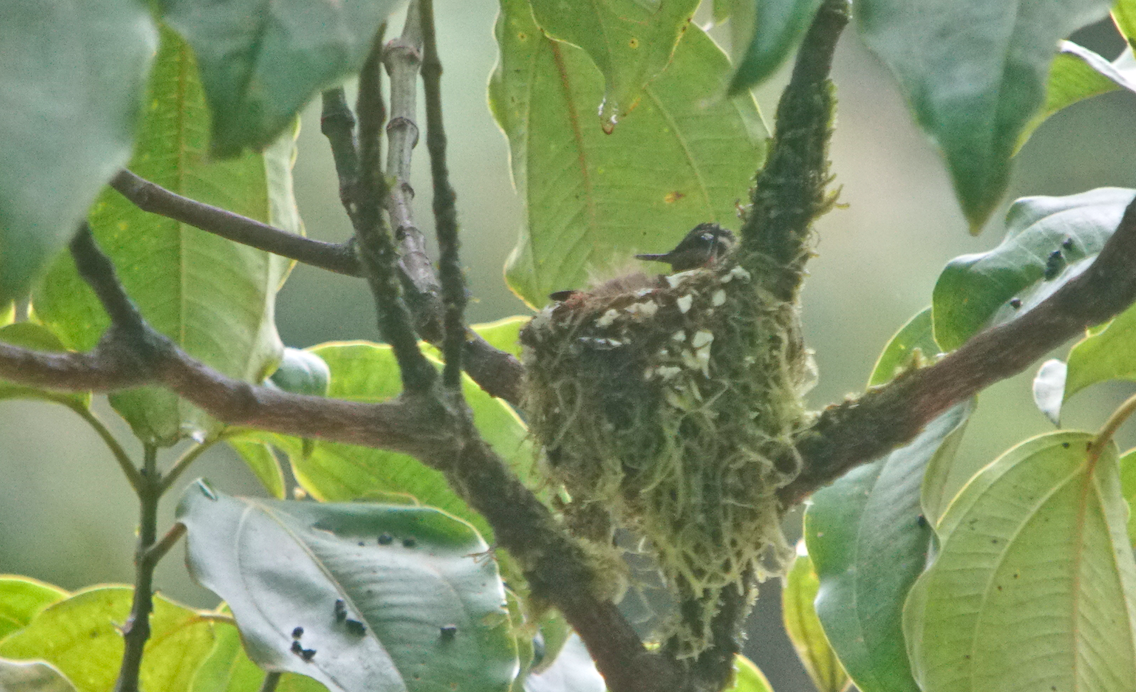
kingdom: Animalia
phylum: Chordata
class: Aves
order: Apodiformes
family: Trochilidae
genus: Lampornis
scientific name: Lampornis calolaemus
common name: Purple-throated mountain-gem
